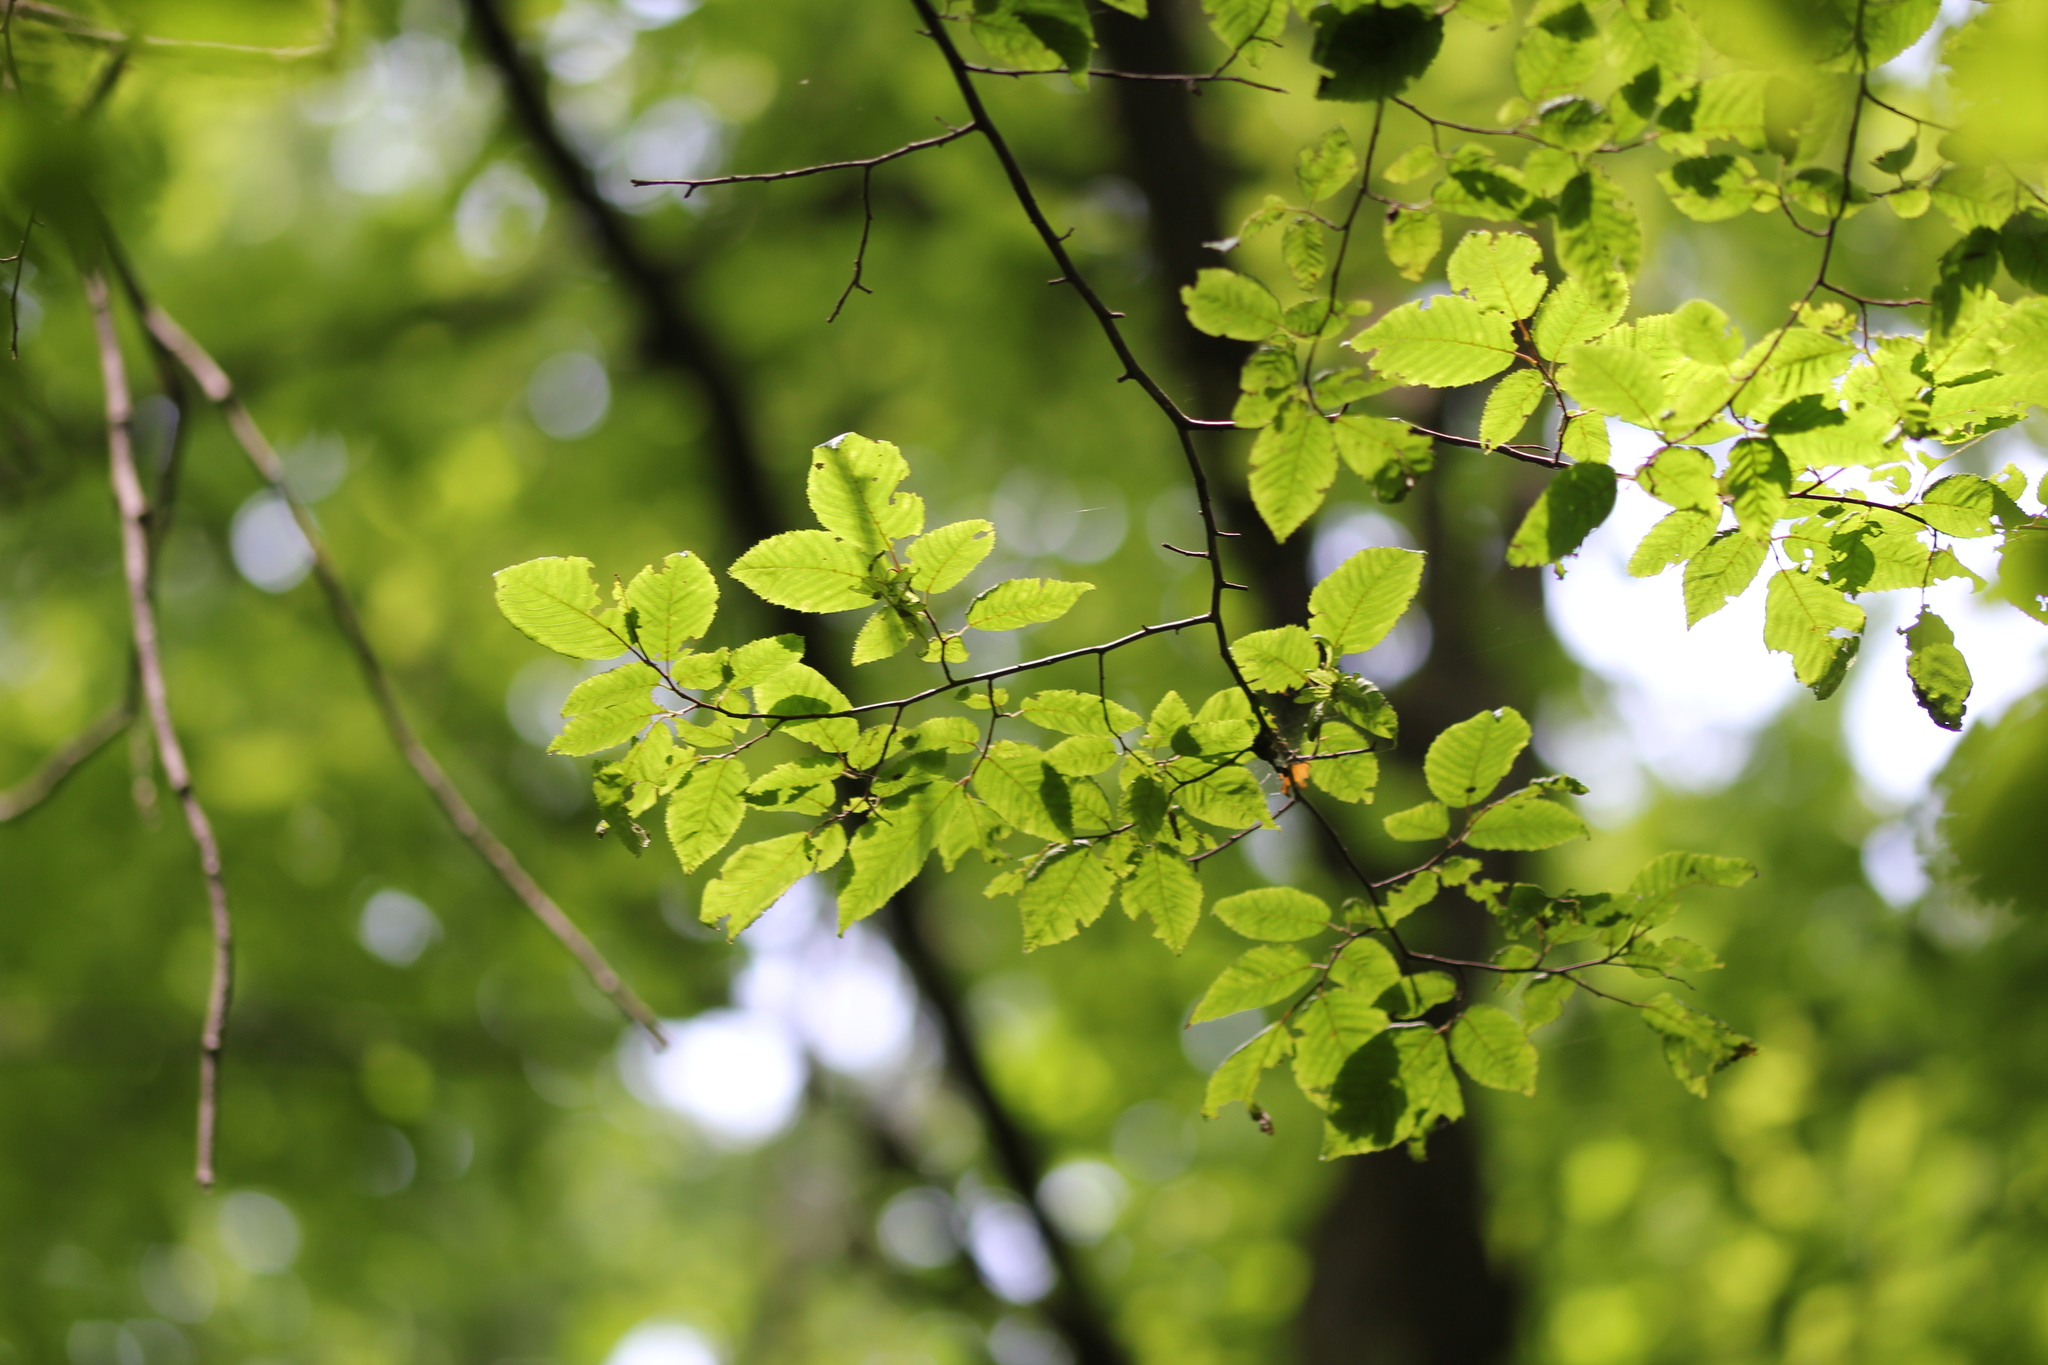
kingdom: Plantae
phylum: Tracheophyta
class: Magnoliopsida
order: Fagales
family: Betulaceae
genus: Carpinus
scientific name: Carpinus caroliniana
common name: American hornbeam
